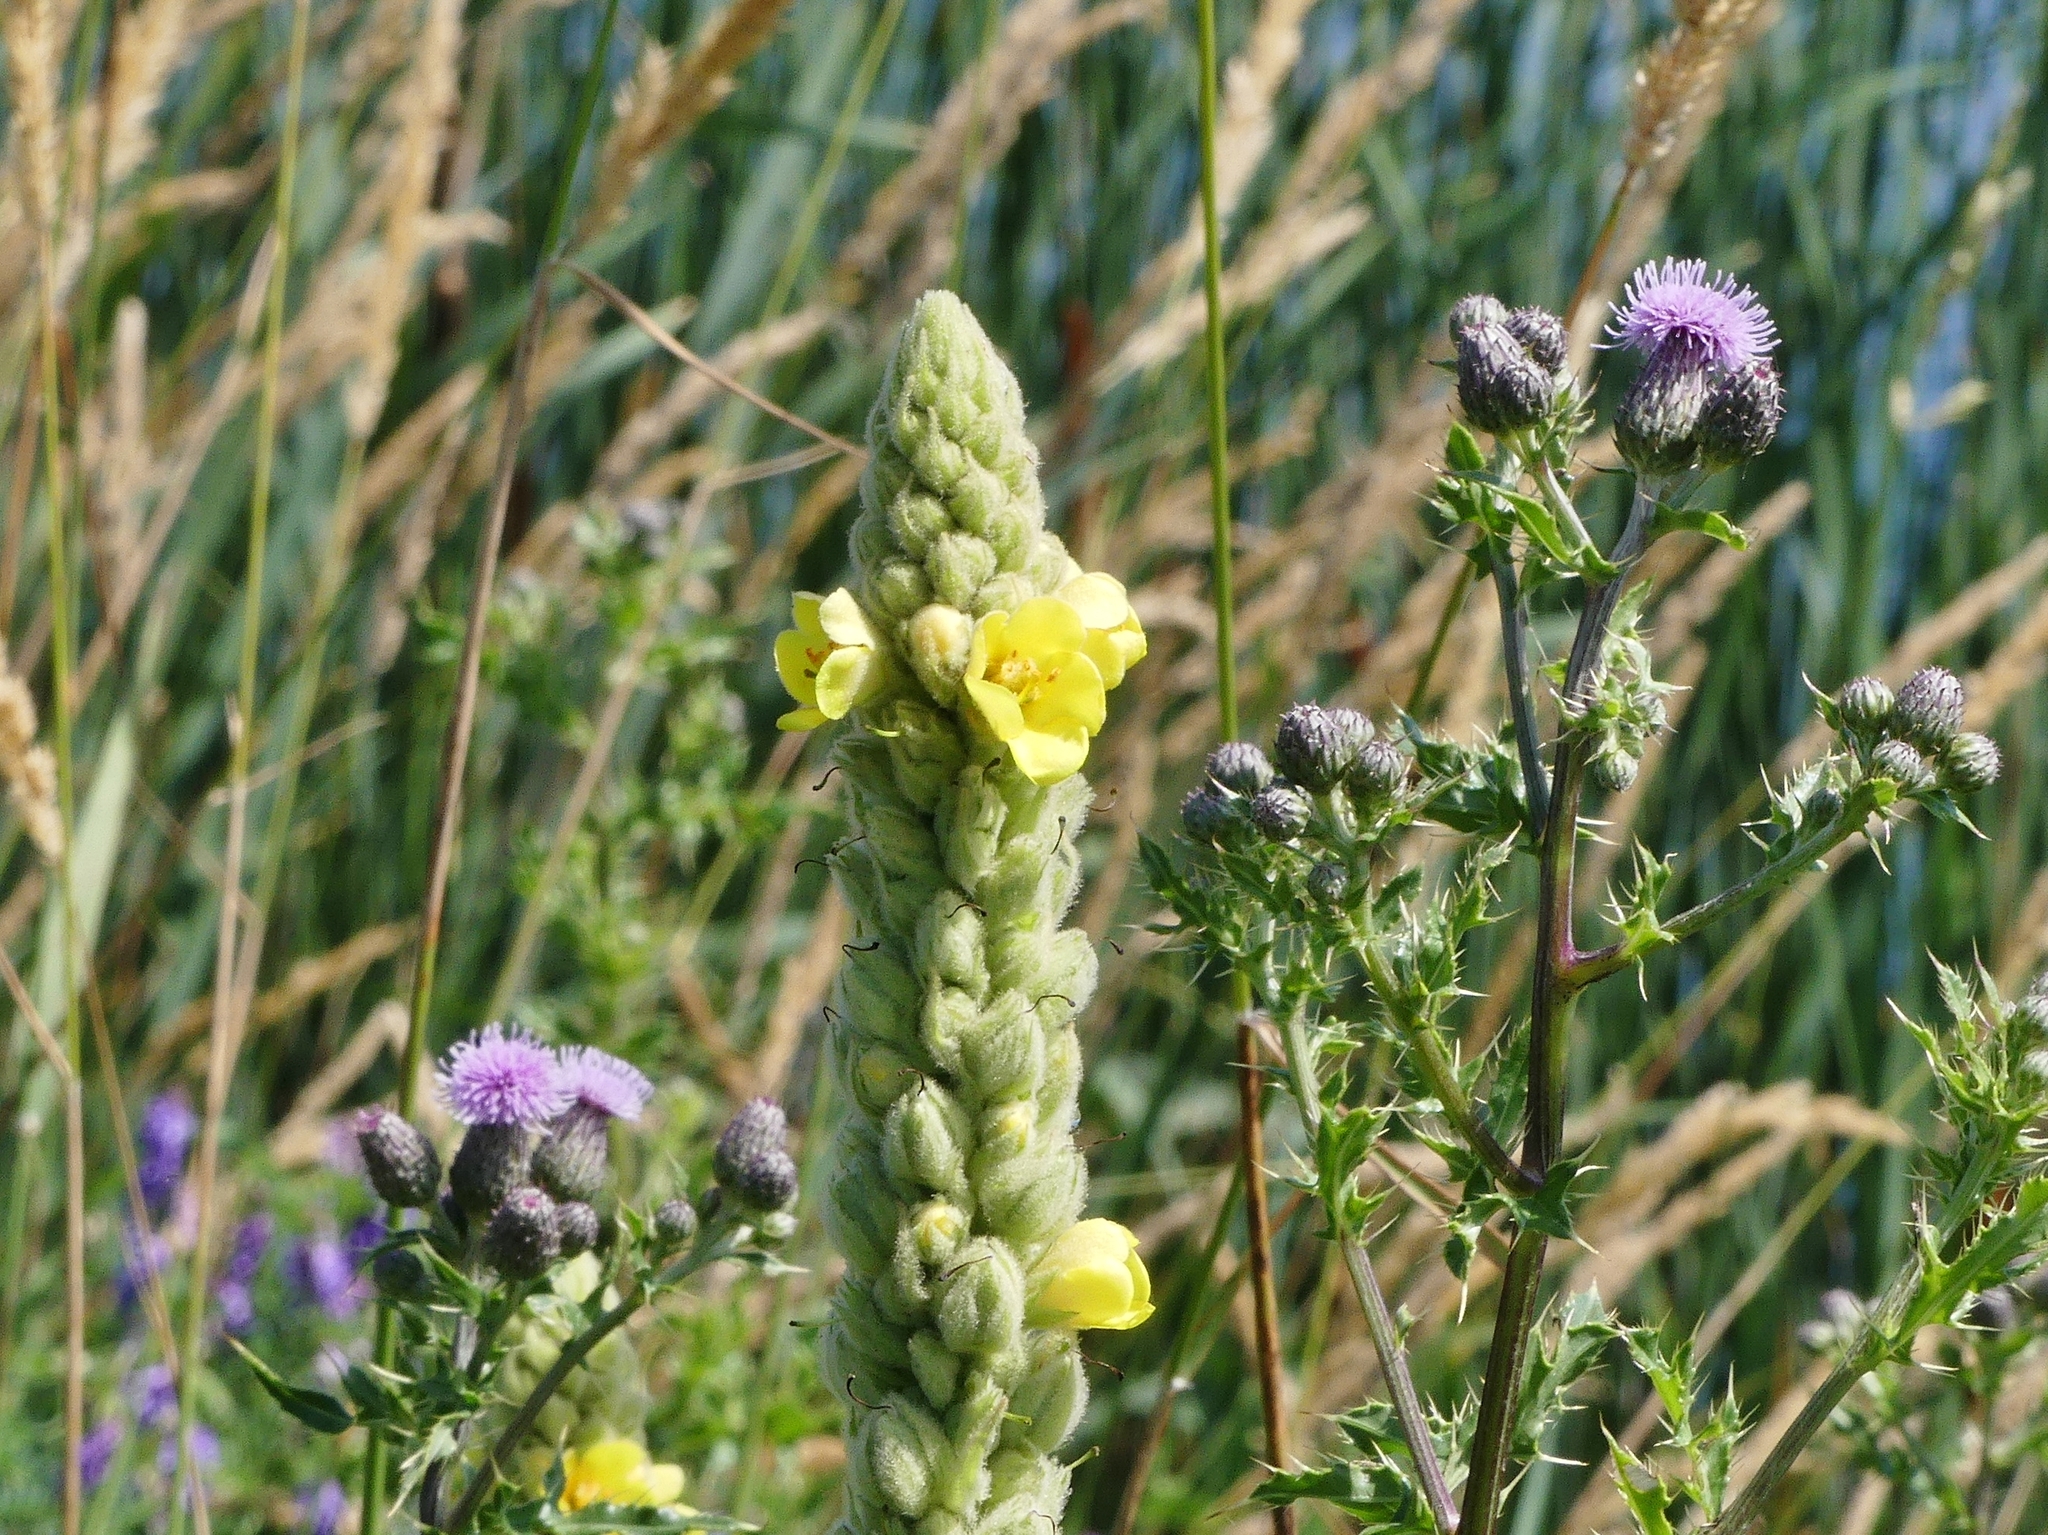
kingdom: Plantae
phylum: Tracheophyta
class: Magnoliopsida
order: Lamiales
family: Scrophulariaceae
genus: Verbascum
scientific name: Verbascum thapsus
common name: Common mullein
